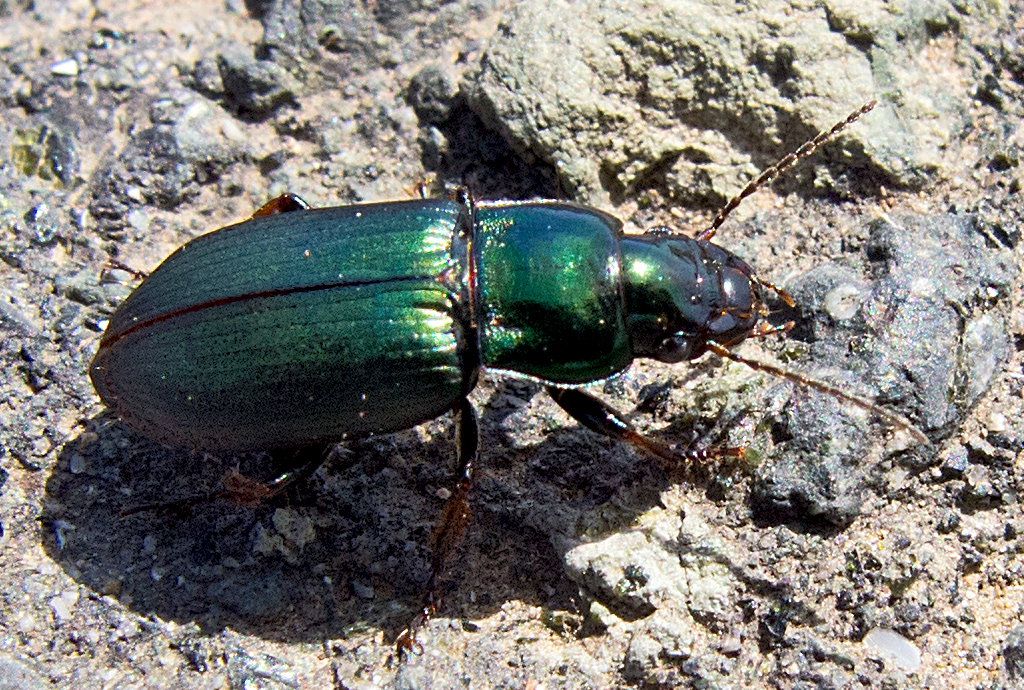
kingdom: Animalia
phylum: Arthropoda
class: Insecta
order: Coleoptera
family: Carabidae
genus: Harpalus
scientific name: Harpalus distinguendus
